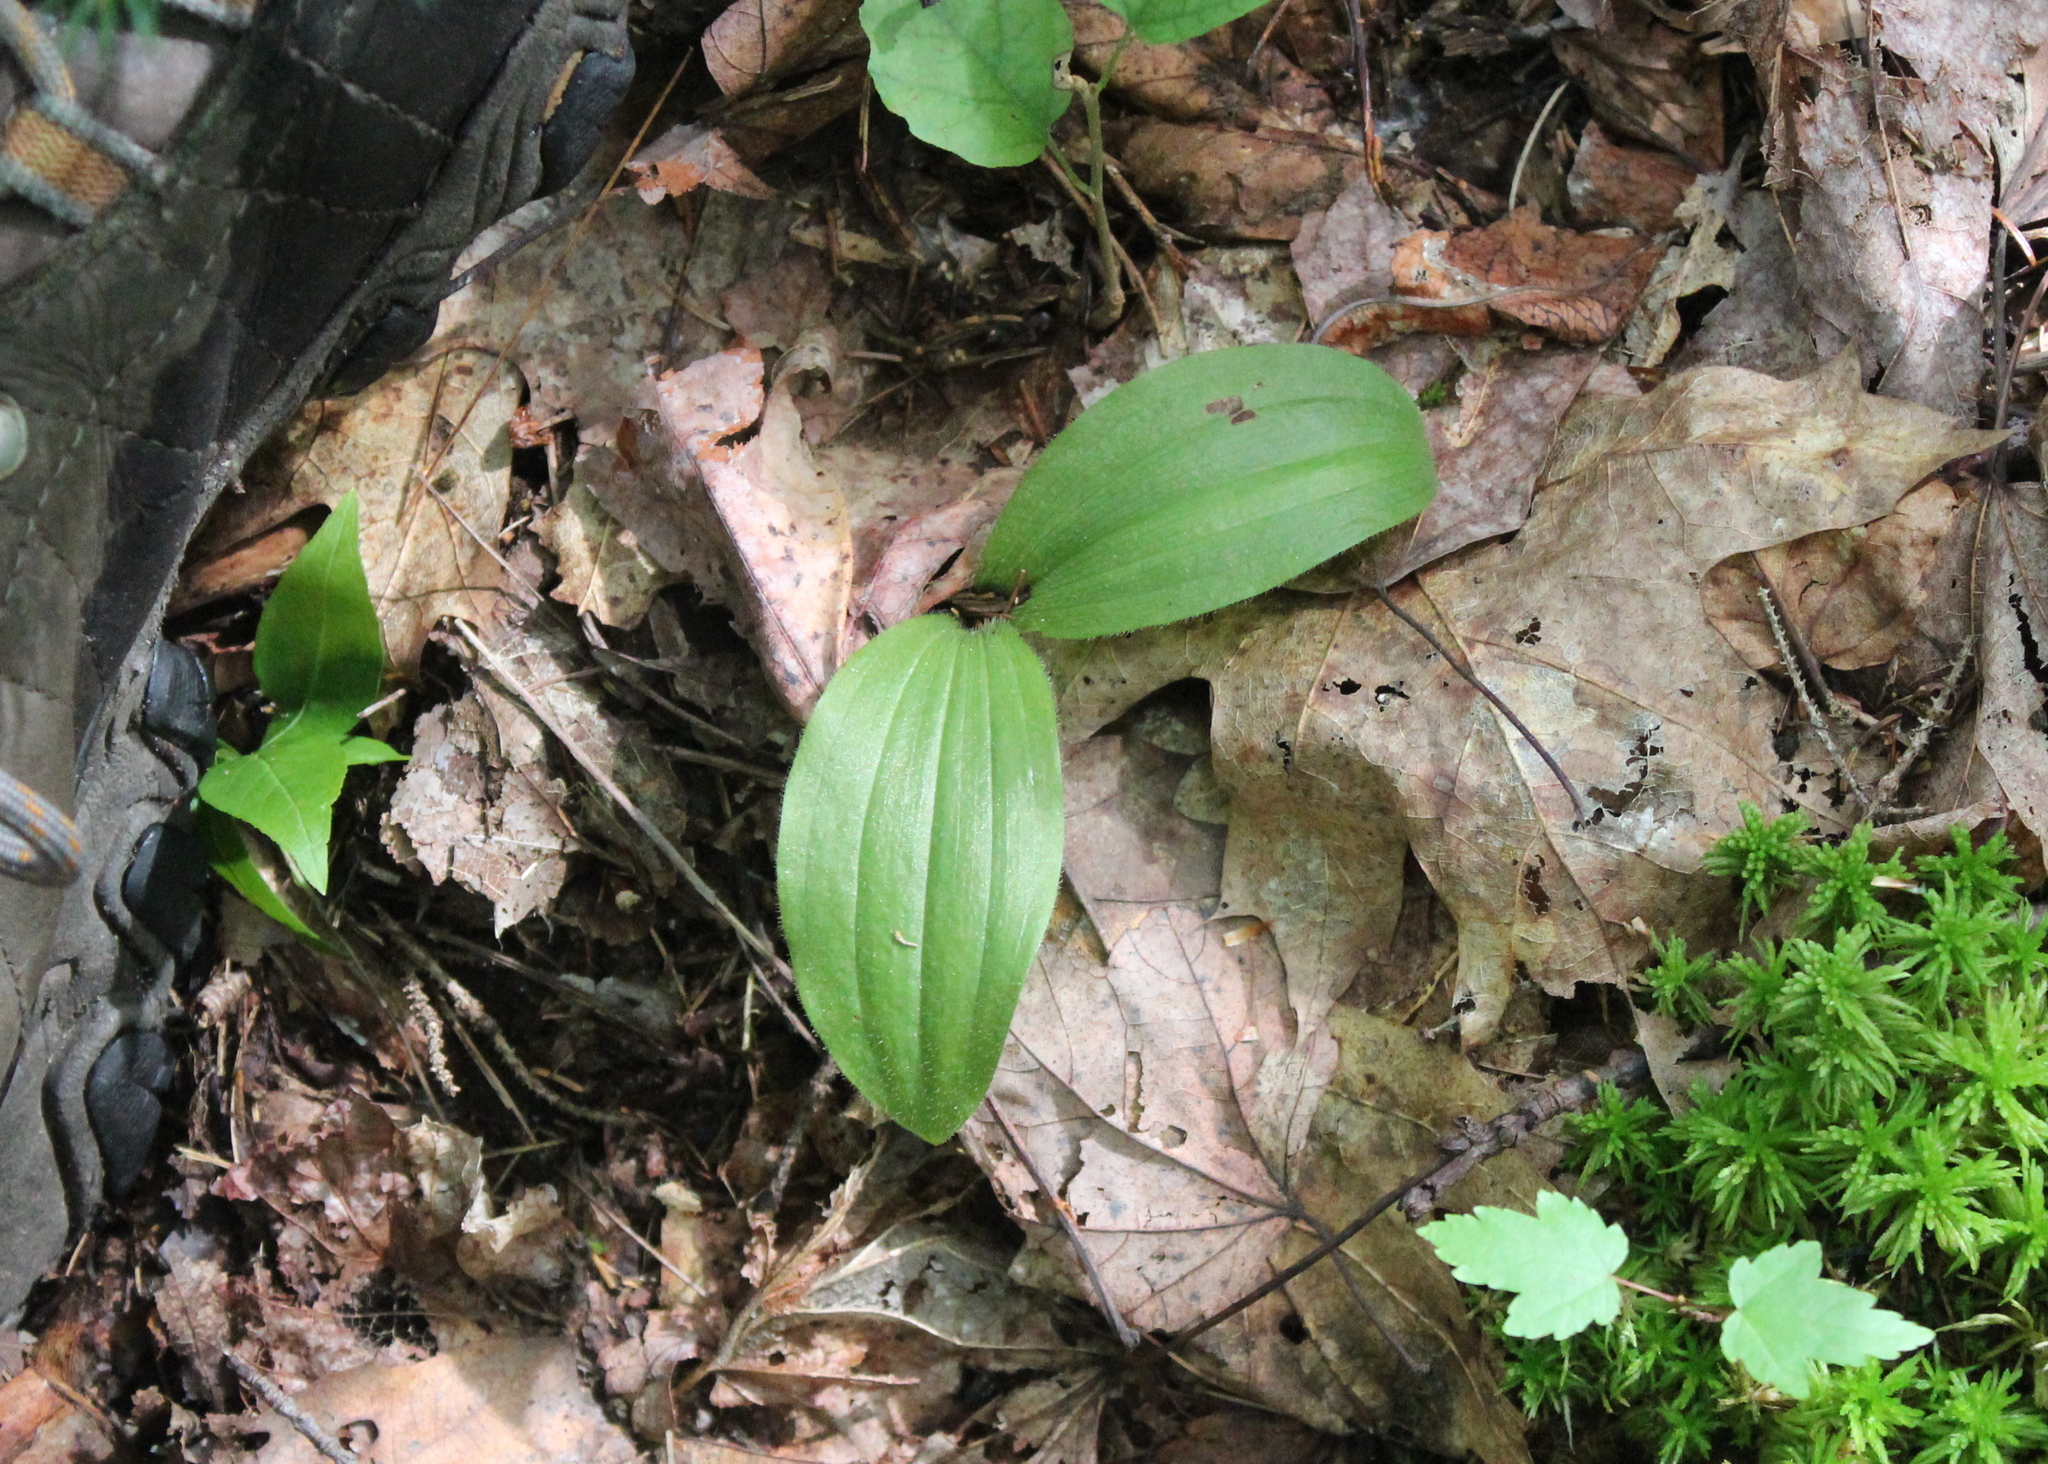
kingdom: Plantae
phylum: Tracheophyta
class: Liliopsida
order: Asparagales
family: Orchidaceae
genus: Cypripedium
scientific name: Cypripedium acaule
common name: Pink lady's-slipper
